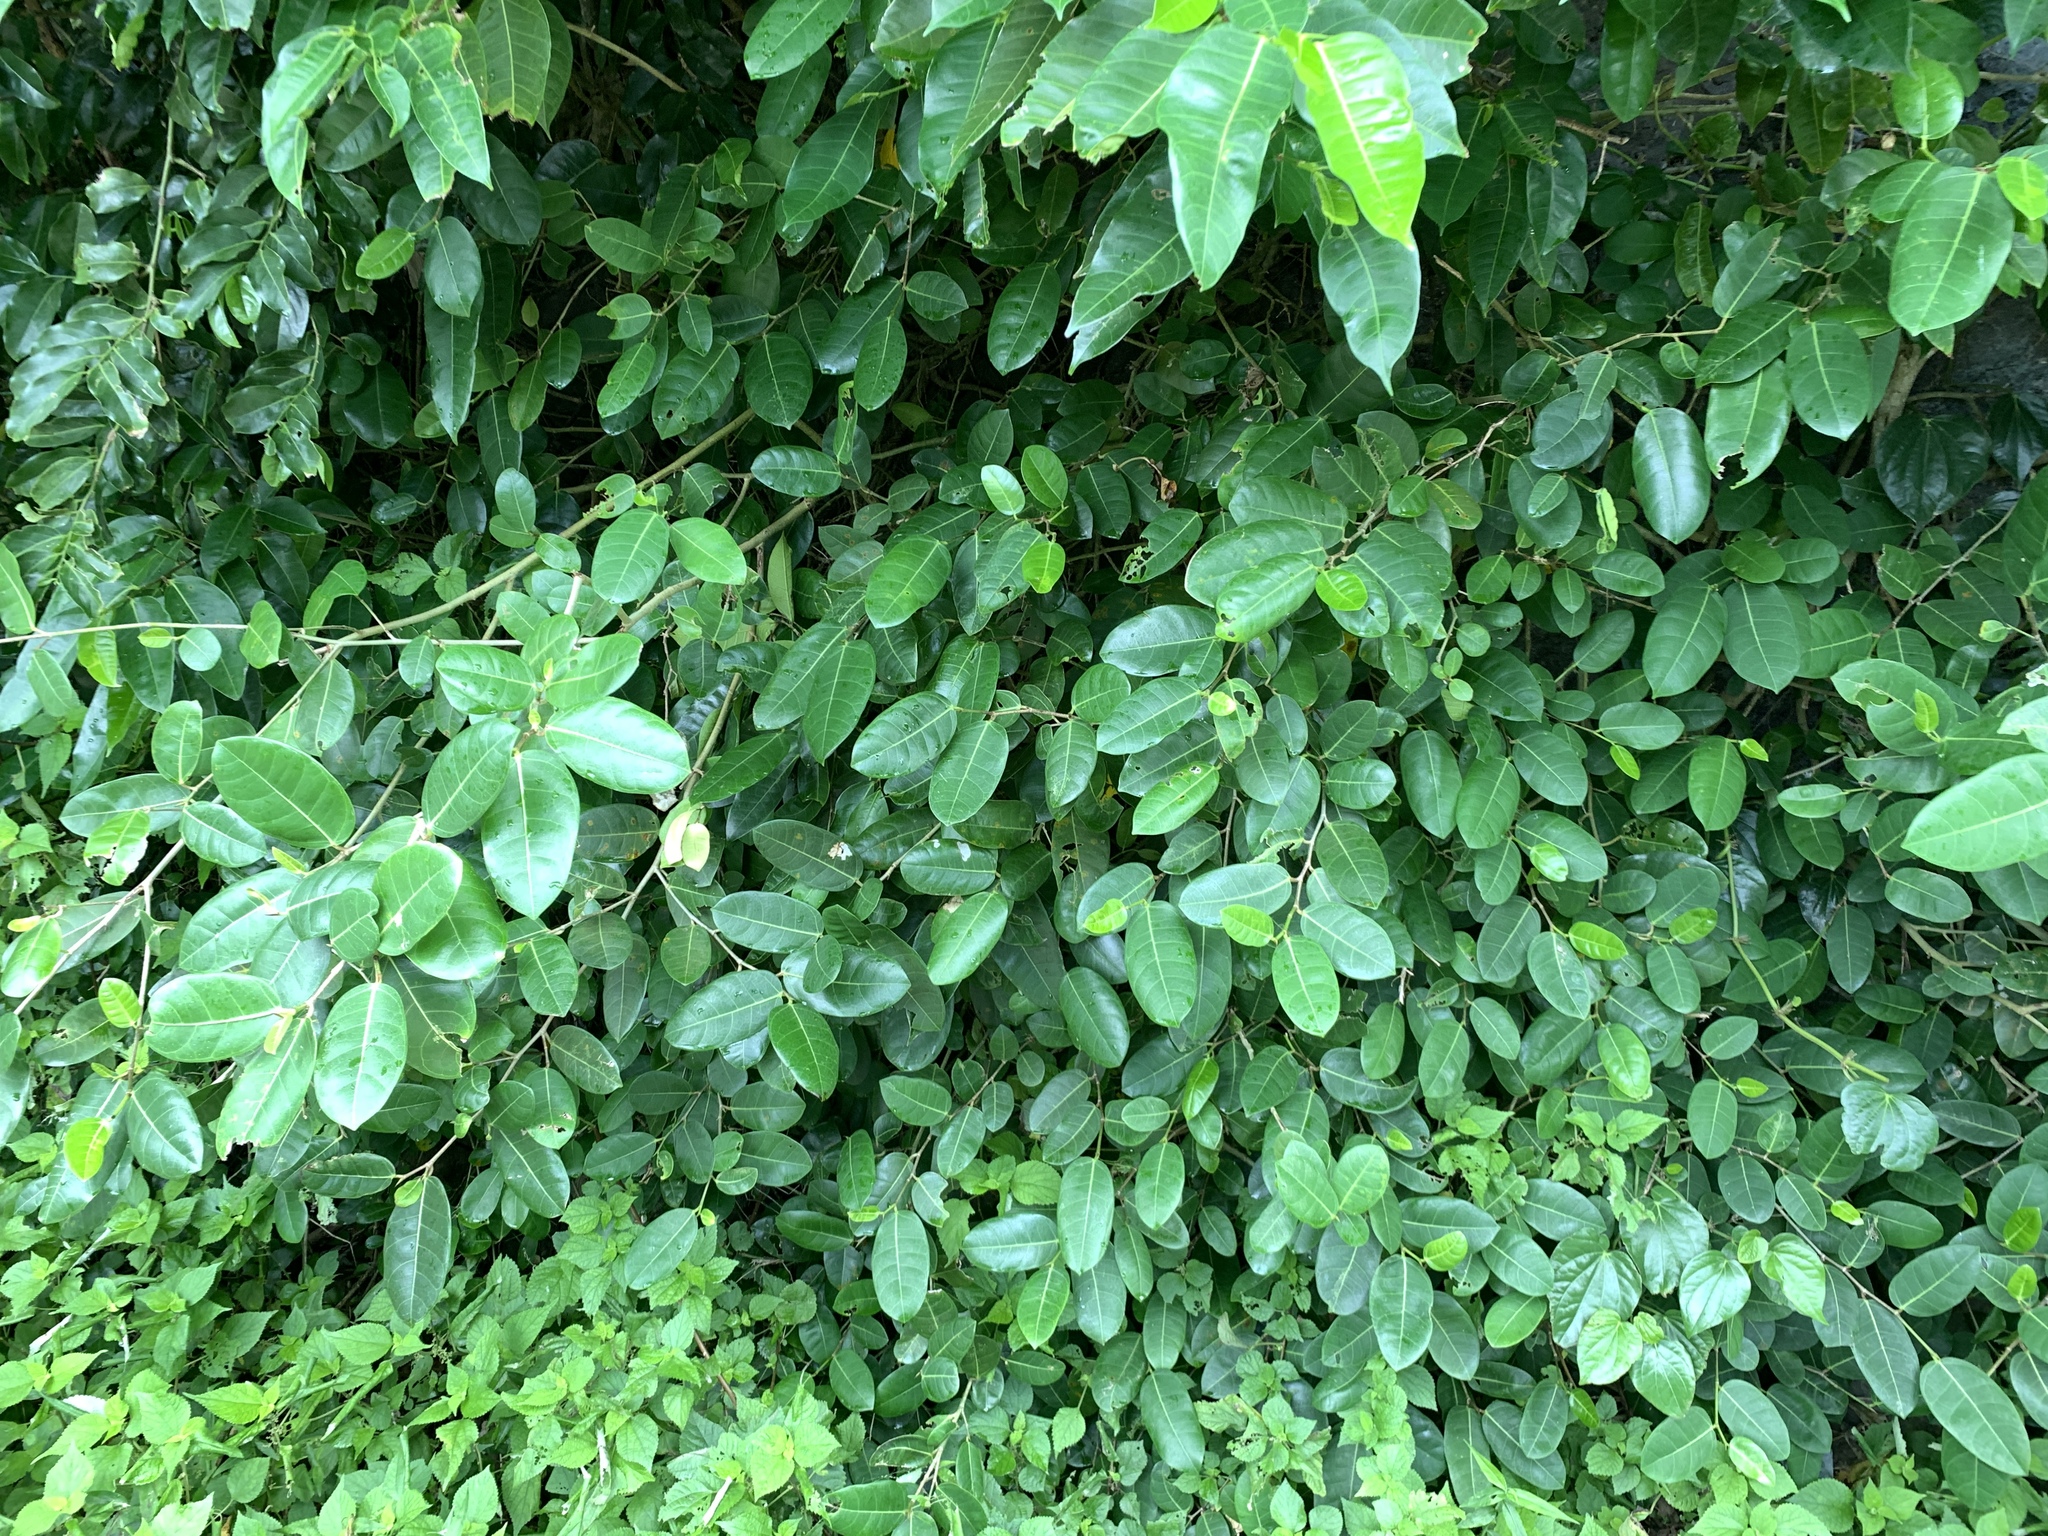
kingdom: Plantae
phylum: Tracheophyta
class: Magnoliopsida
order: Rosales
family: Moraceae
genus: Ficus
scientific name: Ficus tinctoria
